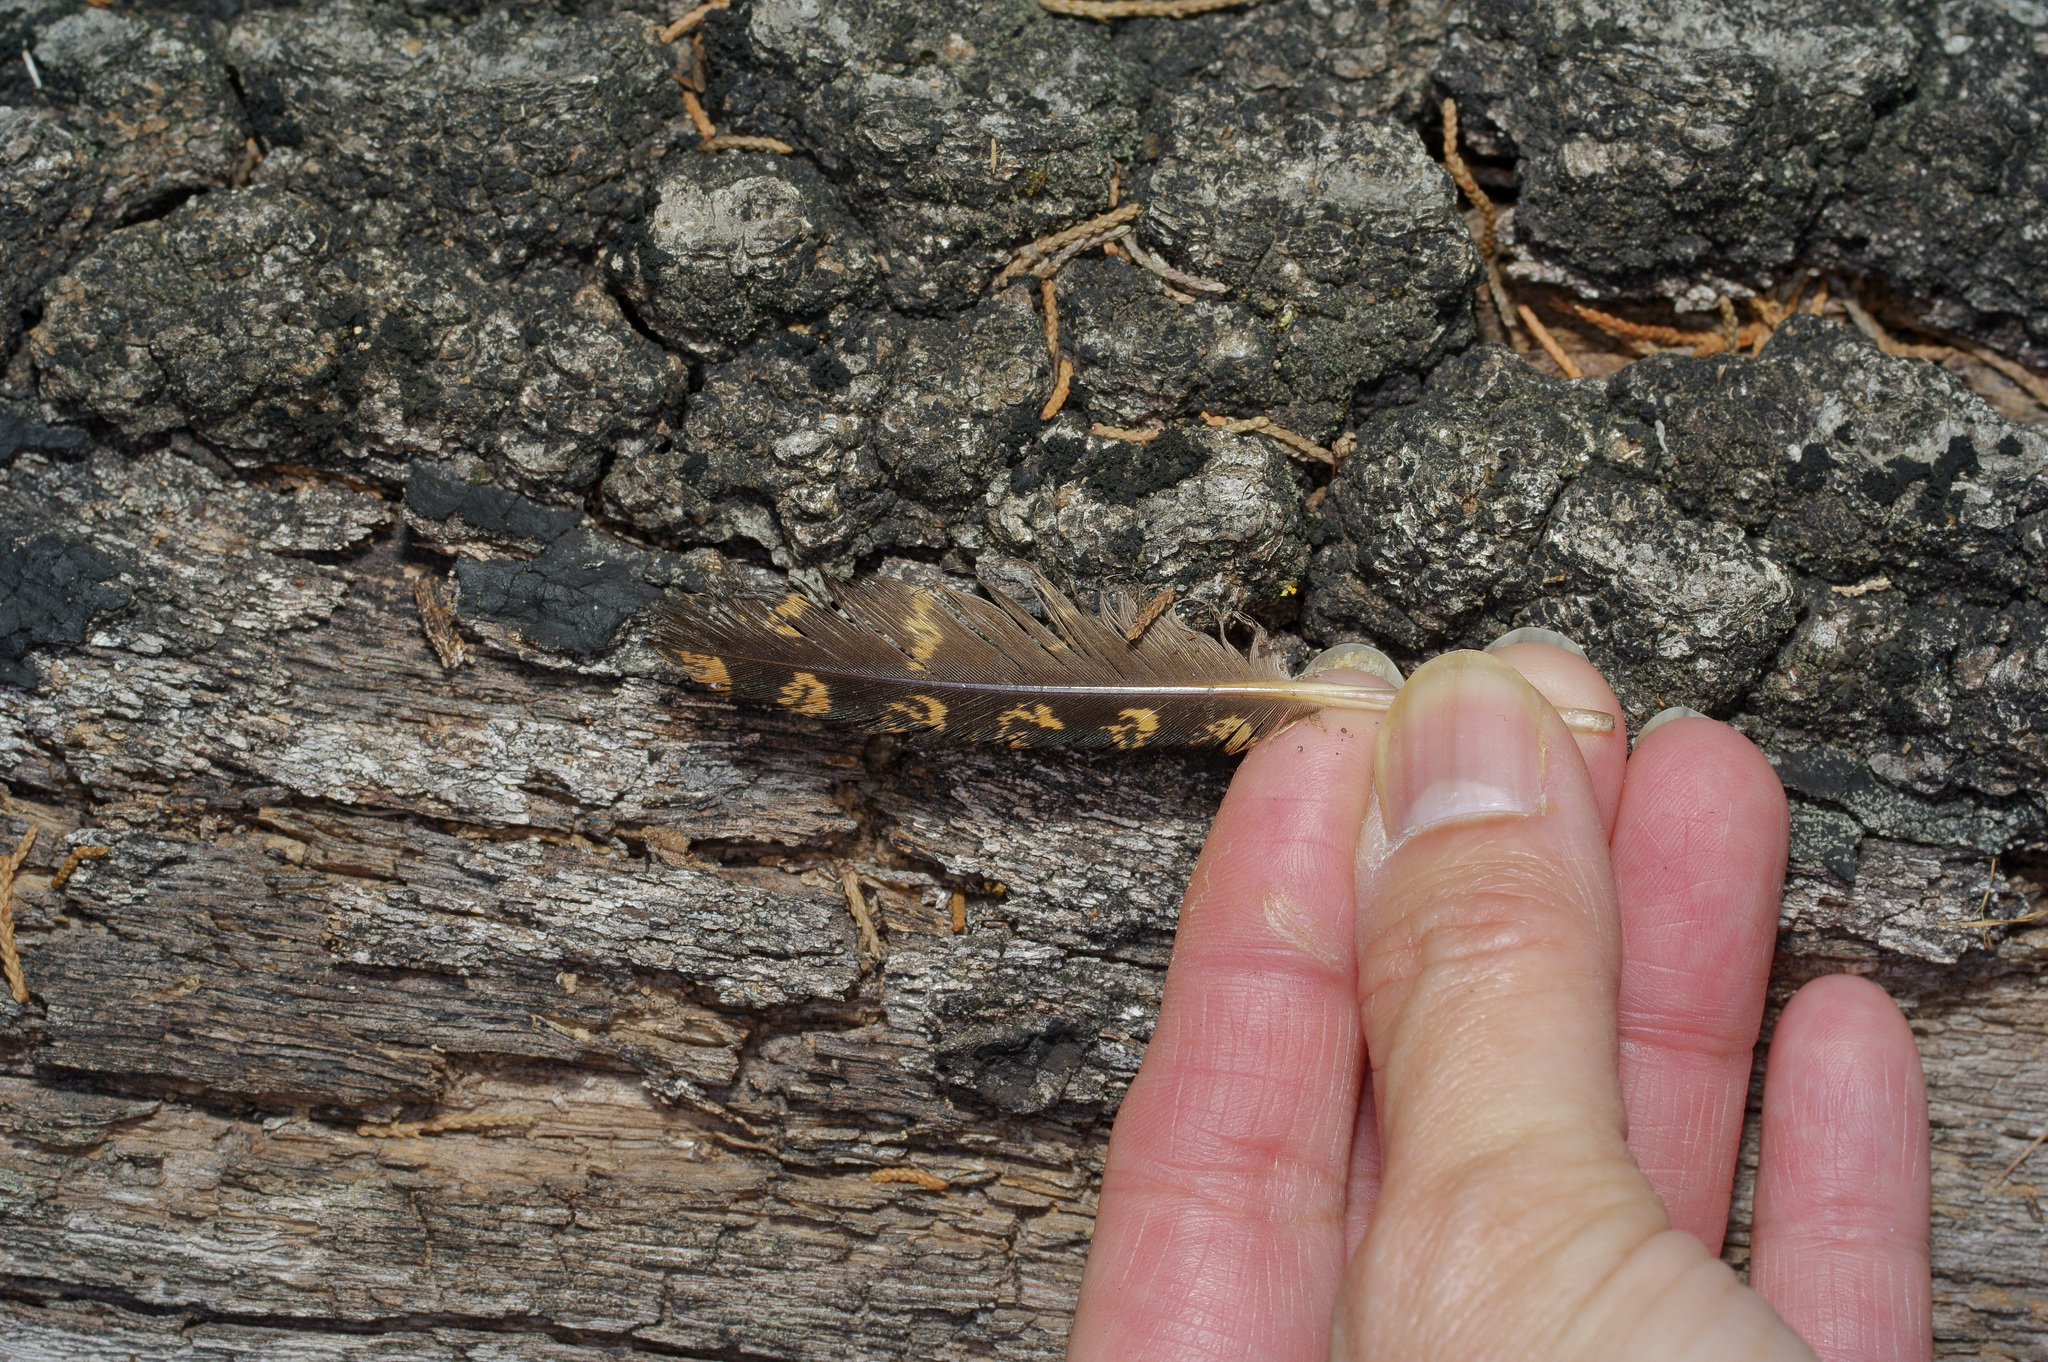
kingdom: Animalia
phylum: Chordata
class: Aves
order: Caprimulgiformes
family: Caprimulgidae
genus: Antrostomus
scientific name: Antrostomus carolinensis
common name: Chuck-will's-widow
